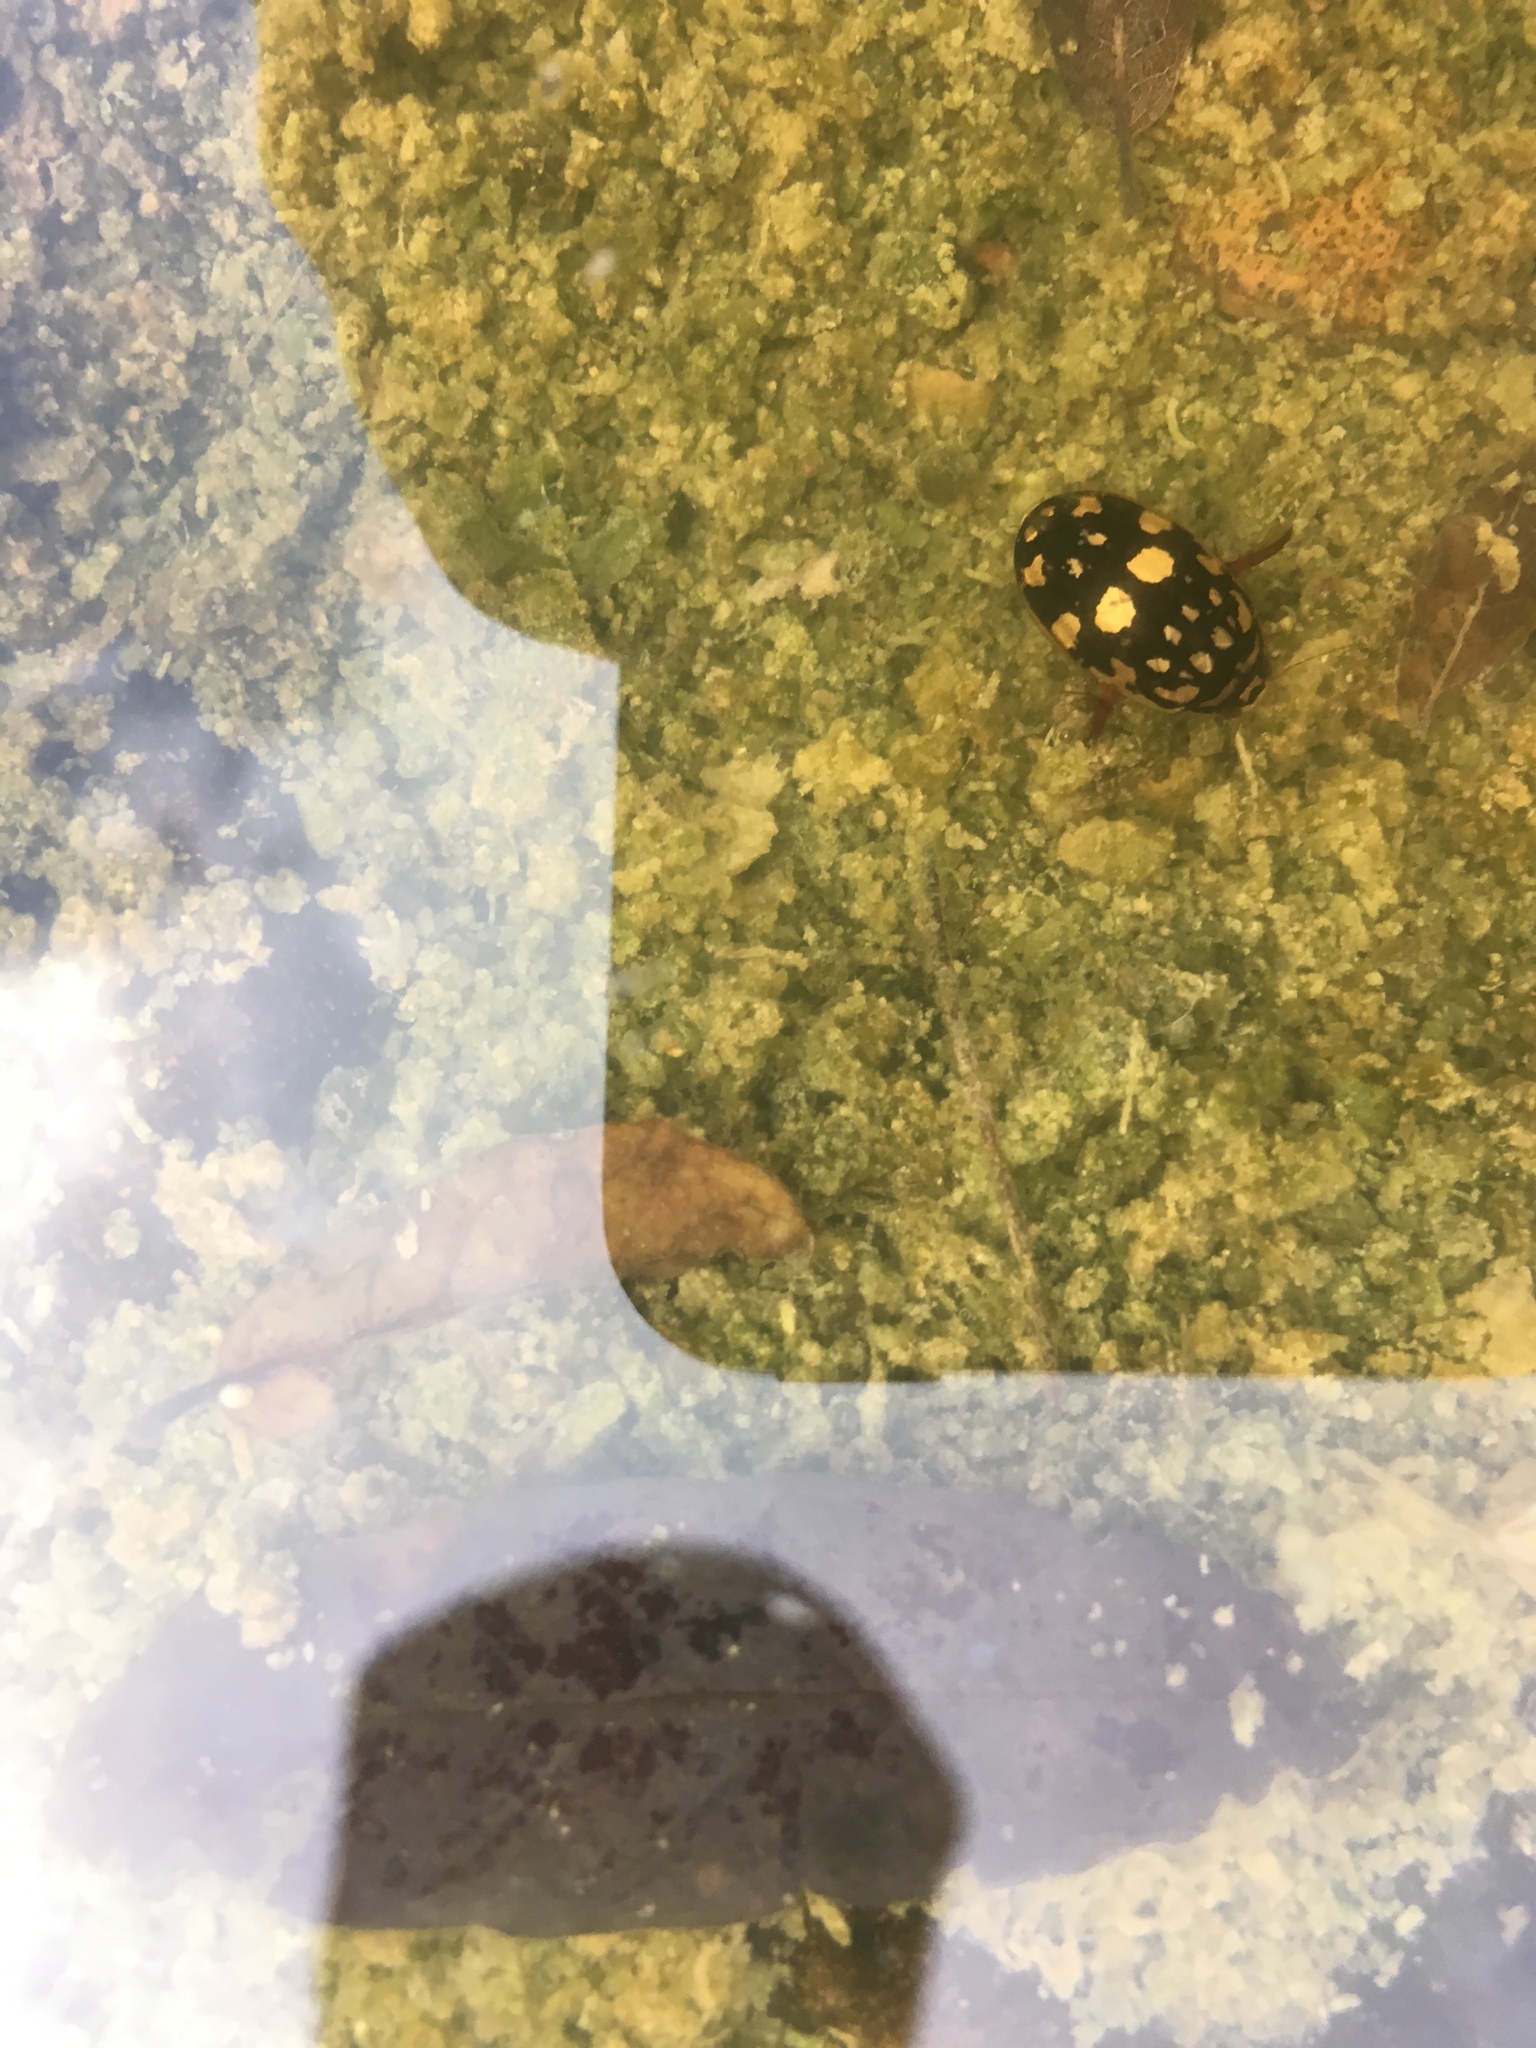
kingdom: Animalia
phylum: Arthropoda
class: Insecta
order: Coleoptera
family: Dytiscidae
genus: Thermonectus
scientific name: Thermonectus marmoratus
